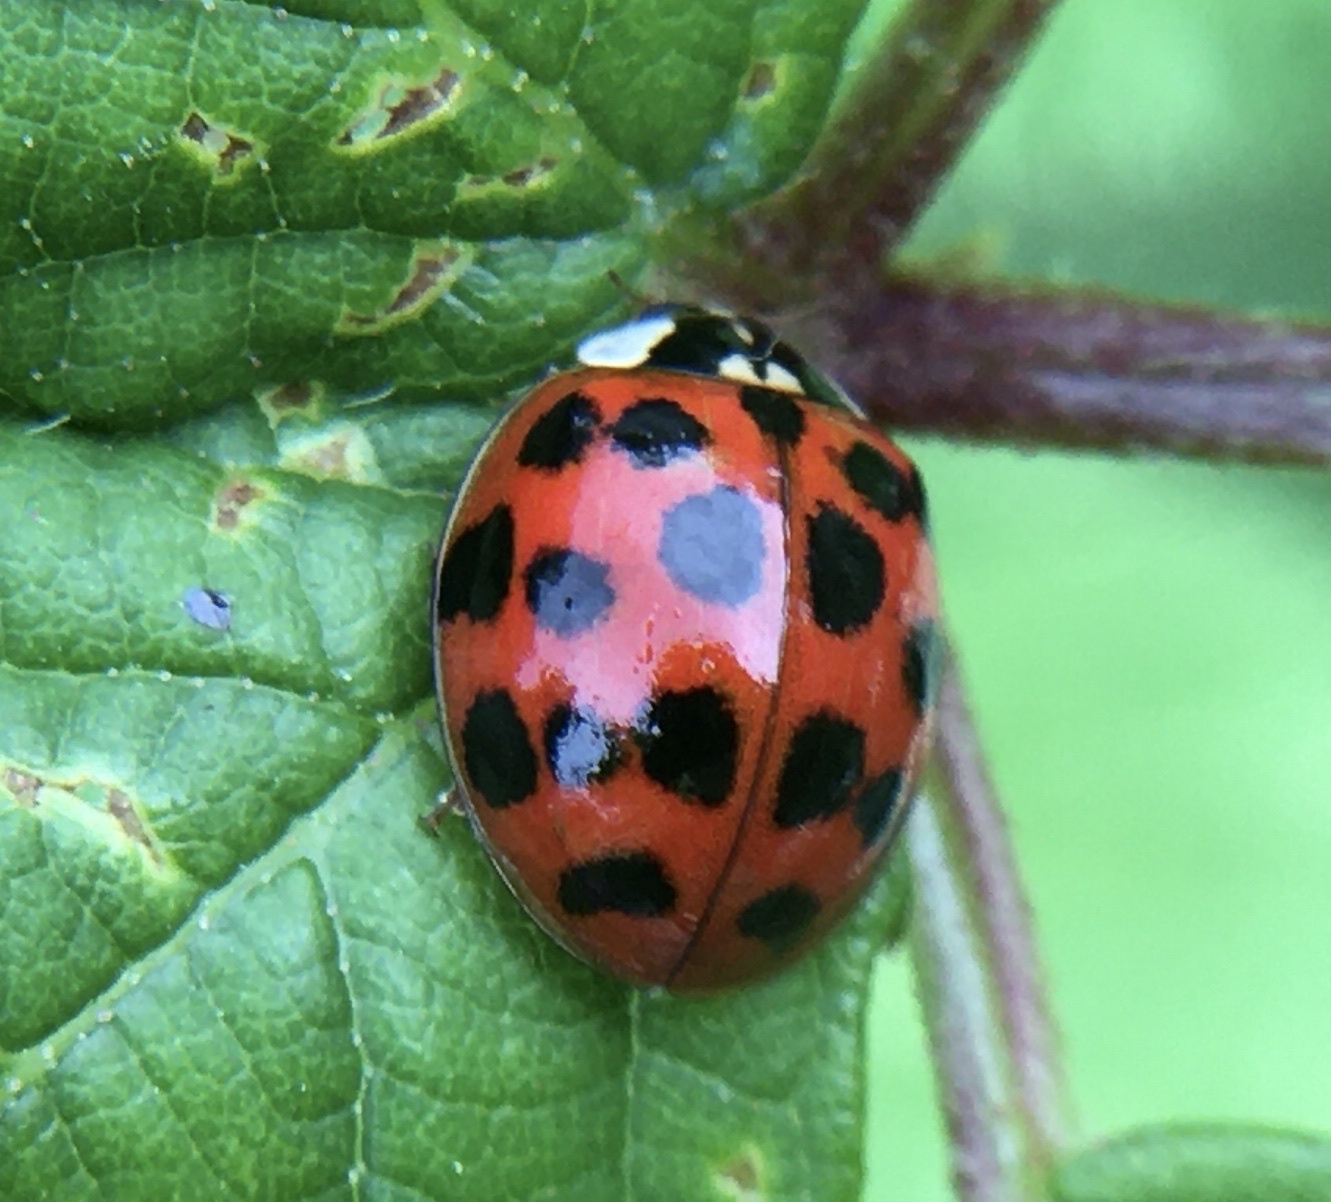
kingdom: Animalia
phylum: Arthropoda
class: Insecta
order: Coleoptera
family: Coccinellidae
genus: Harmonia
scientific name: Harmonia axyridis
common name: Harlequin ladybird
